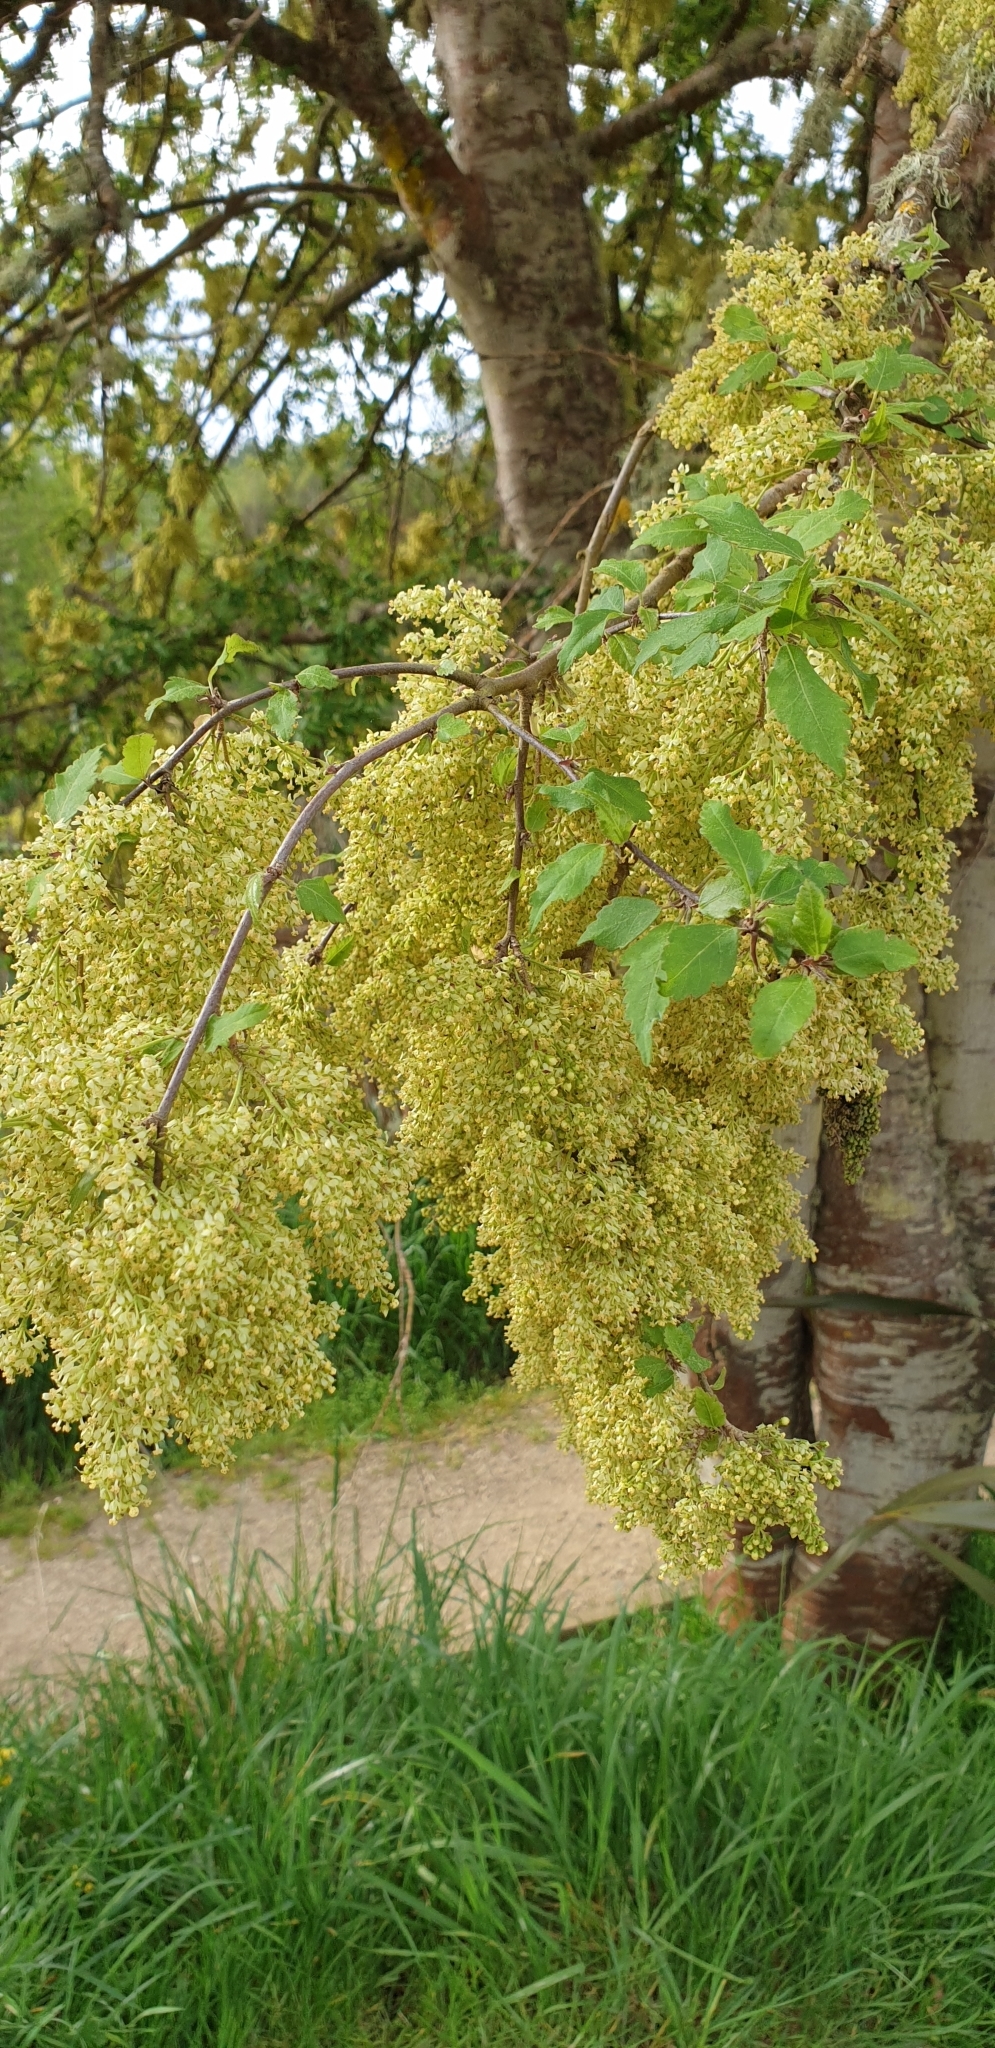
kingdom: Plantae
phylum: Tracheophyta
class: Magnoliopsida
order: Malvales
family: Malvaceae
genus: Plagianthus
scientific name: Plagianthus regius
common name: Manatu
